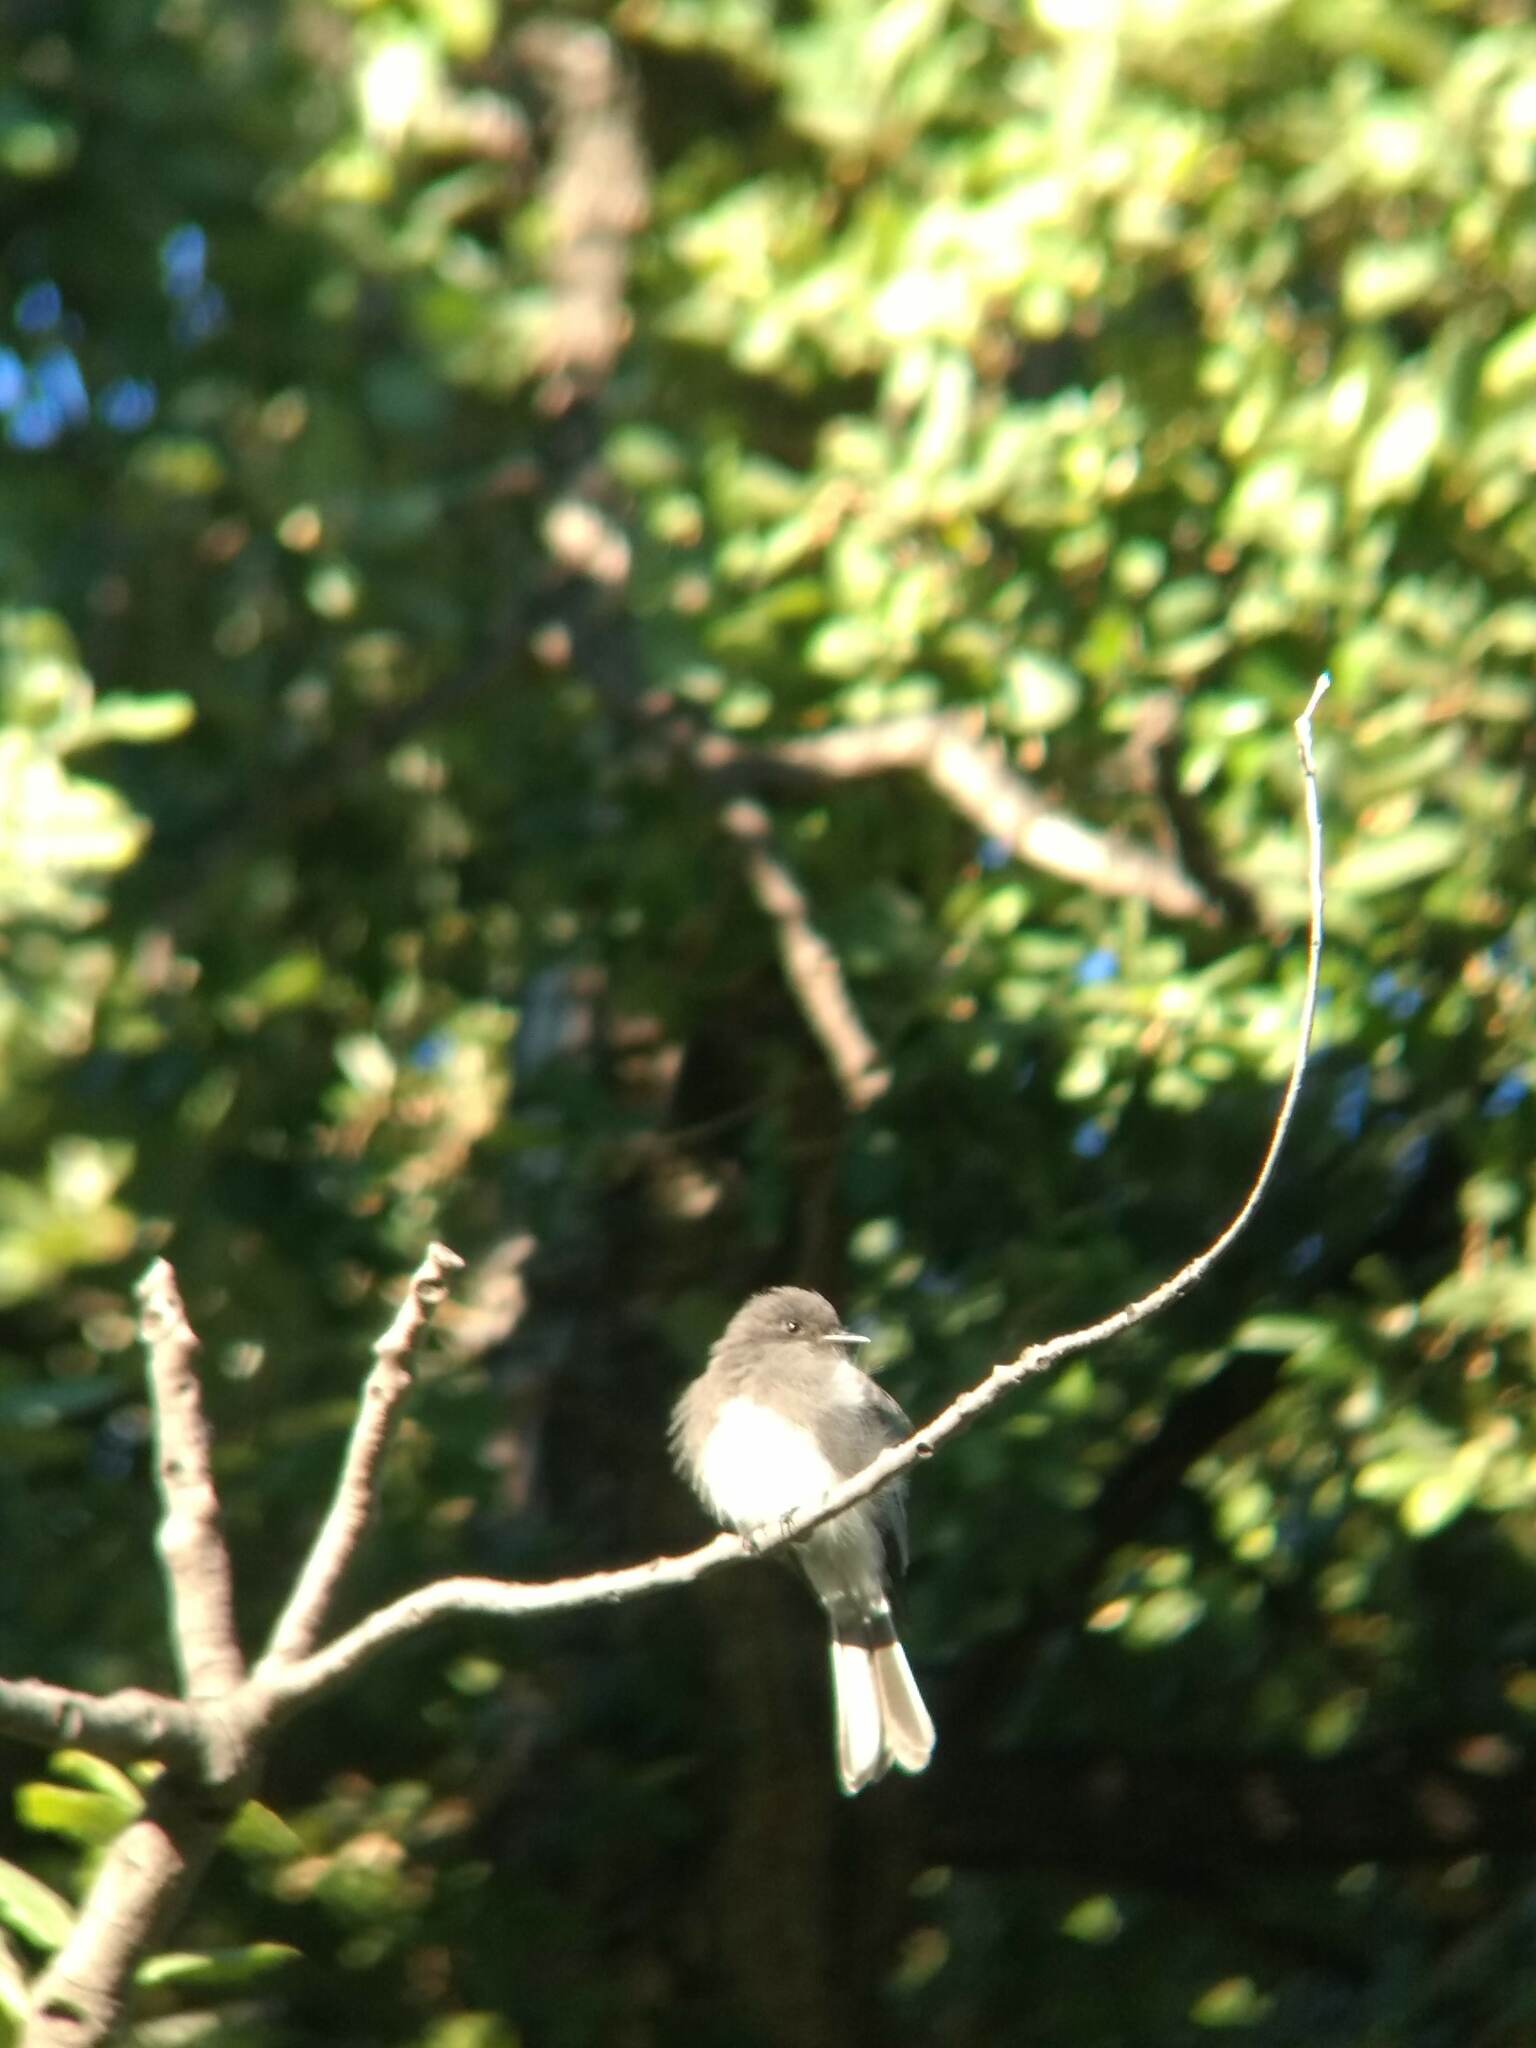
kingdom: Animalia
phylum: Chordata
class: Aves
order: Passeriformes
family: Tyrannidae
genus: Sayornis
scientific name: Sayornis nigricans
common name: Black phoebe
